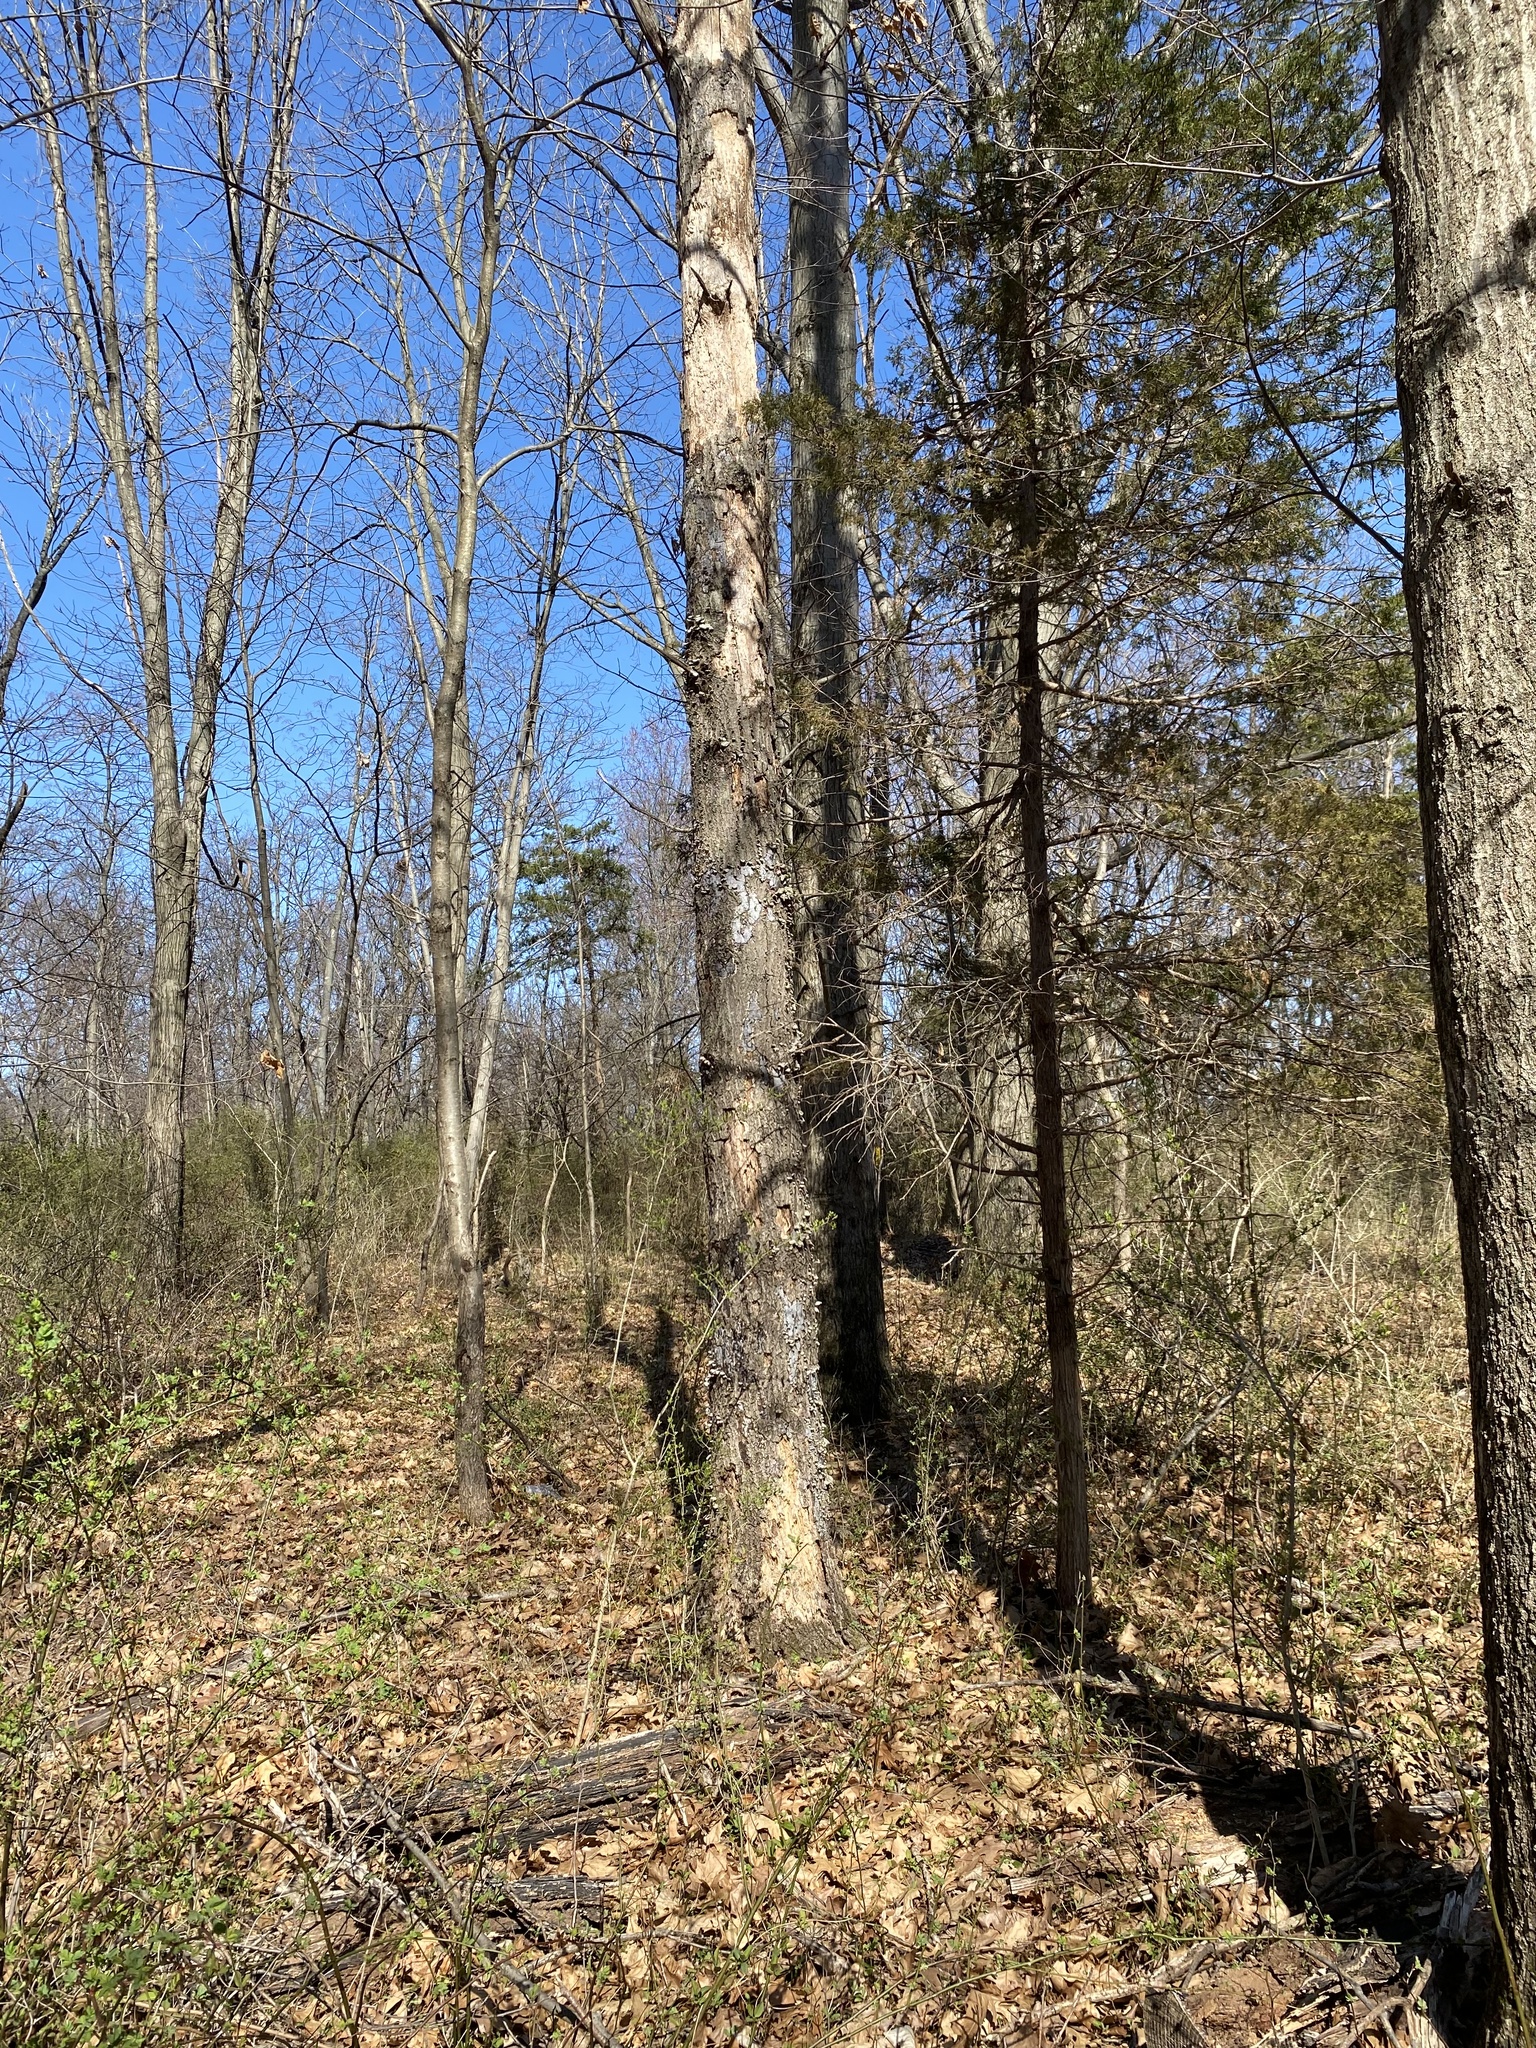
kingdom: Fungi
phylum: Ascomycota
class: Sordariomycetes
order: Xylariales
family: Graphostromataceae
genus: Biscogniauxia
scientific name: Biscogniauxia atropunctata
